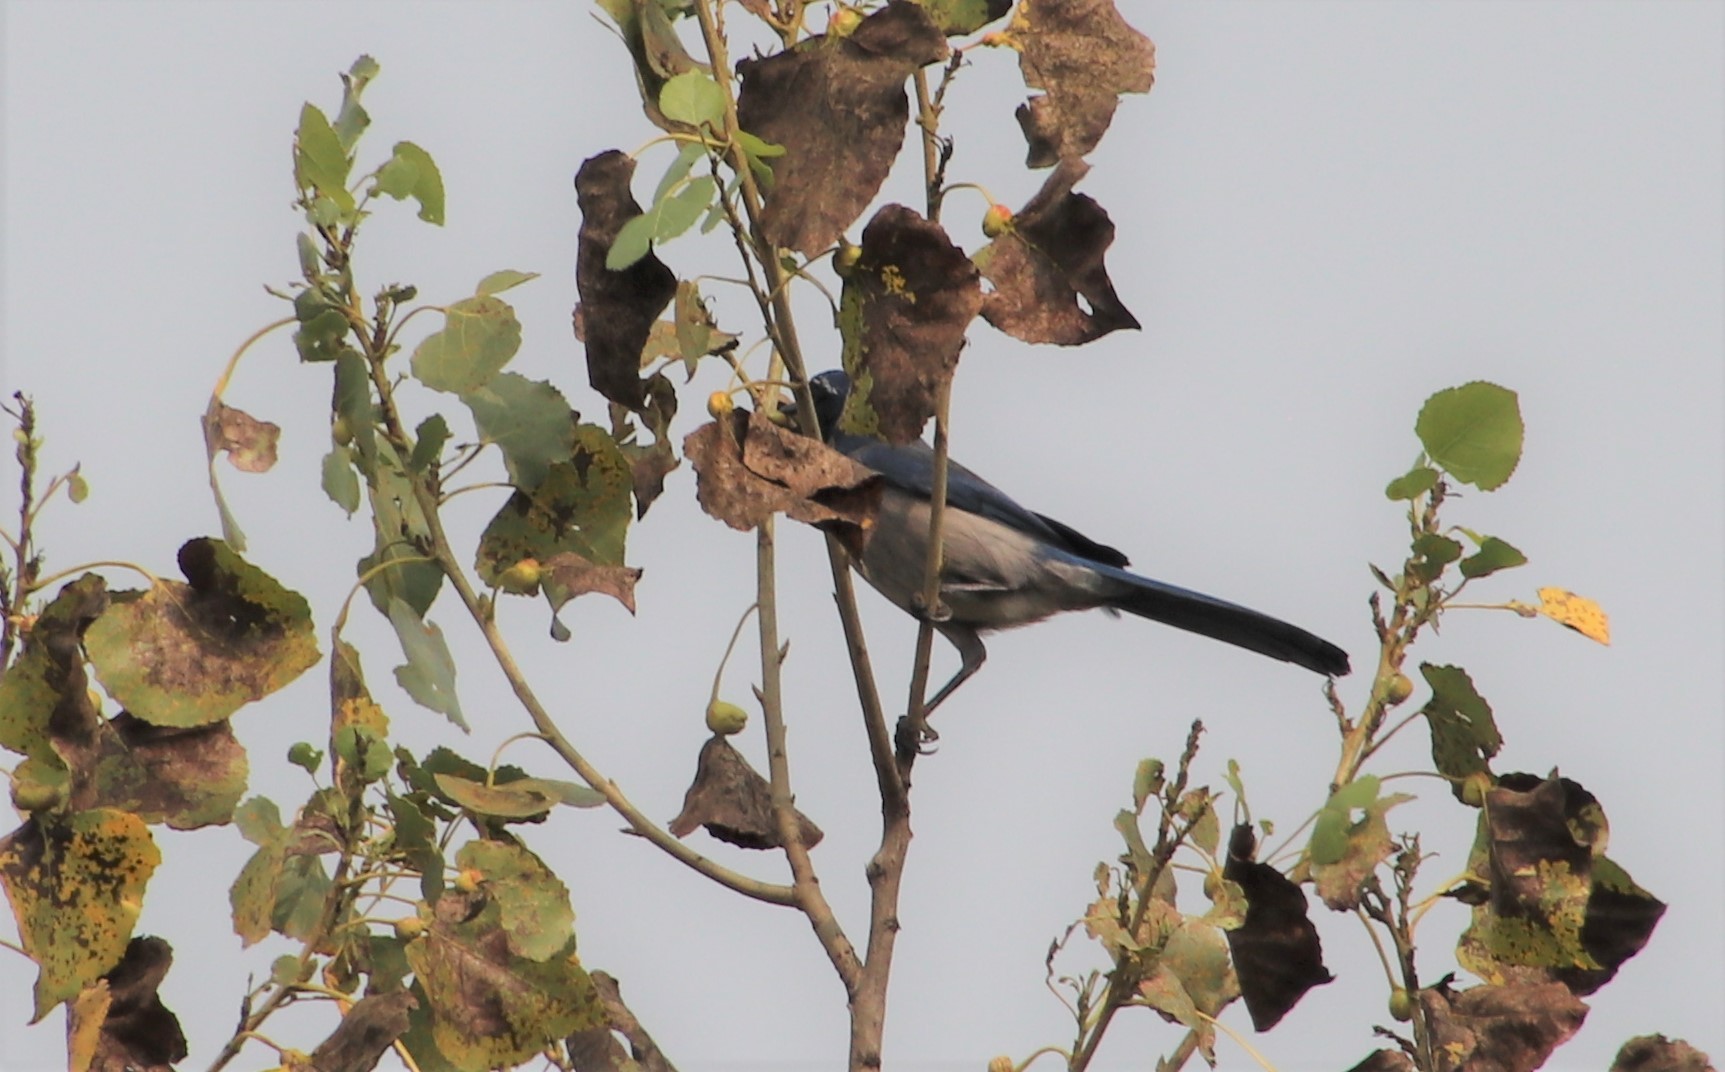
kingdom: Animalia
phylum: Chordata
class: Aves
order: Passeriformes
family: Corvidae
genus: Aphelocoma
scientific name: Aphelocoma californica
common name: California scrub-jay
